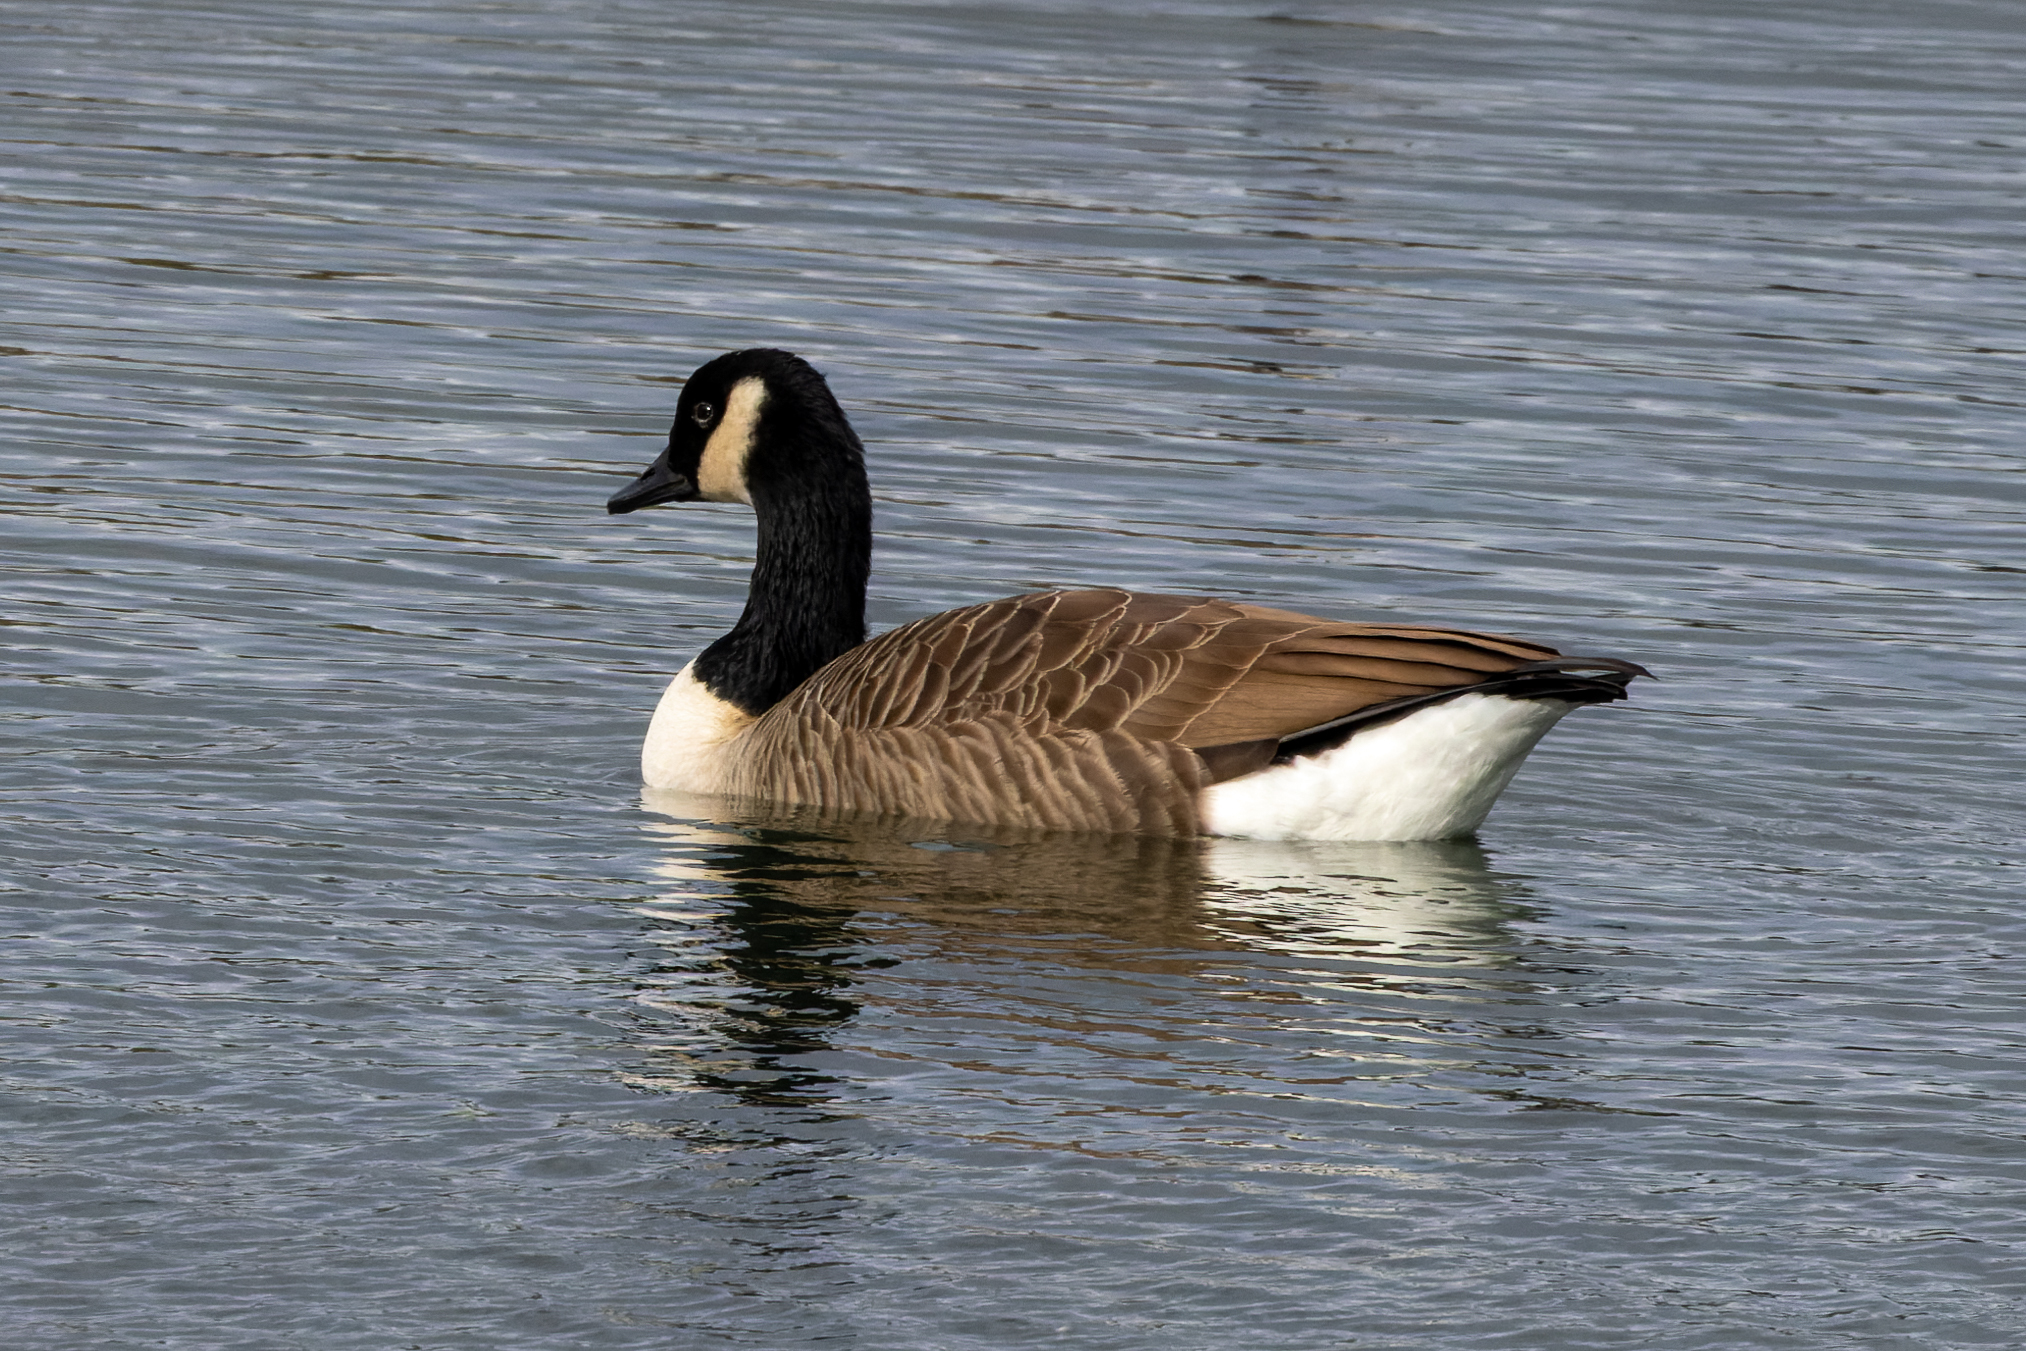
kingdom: Animalia
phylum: Chordata
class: Aves
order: Anseriformes
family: Anatidae
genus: Branta
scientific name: Branta canadensis
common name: Canada goose
